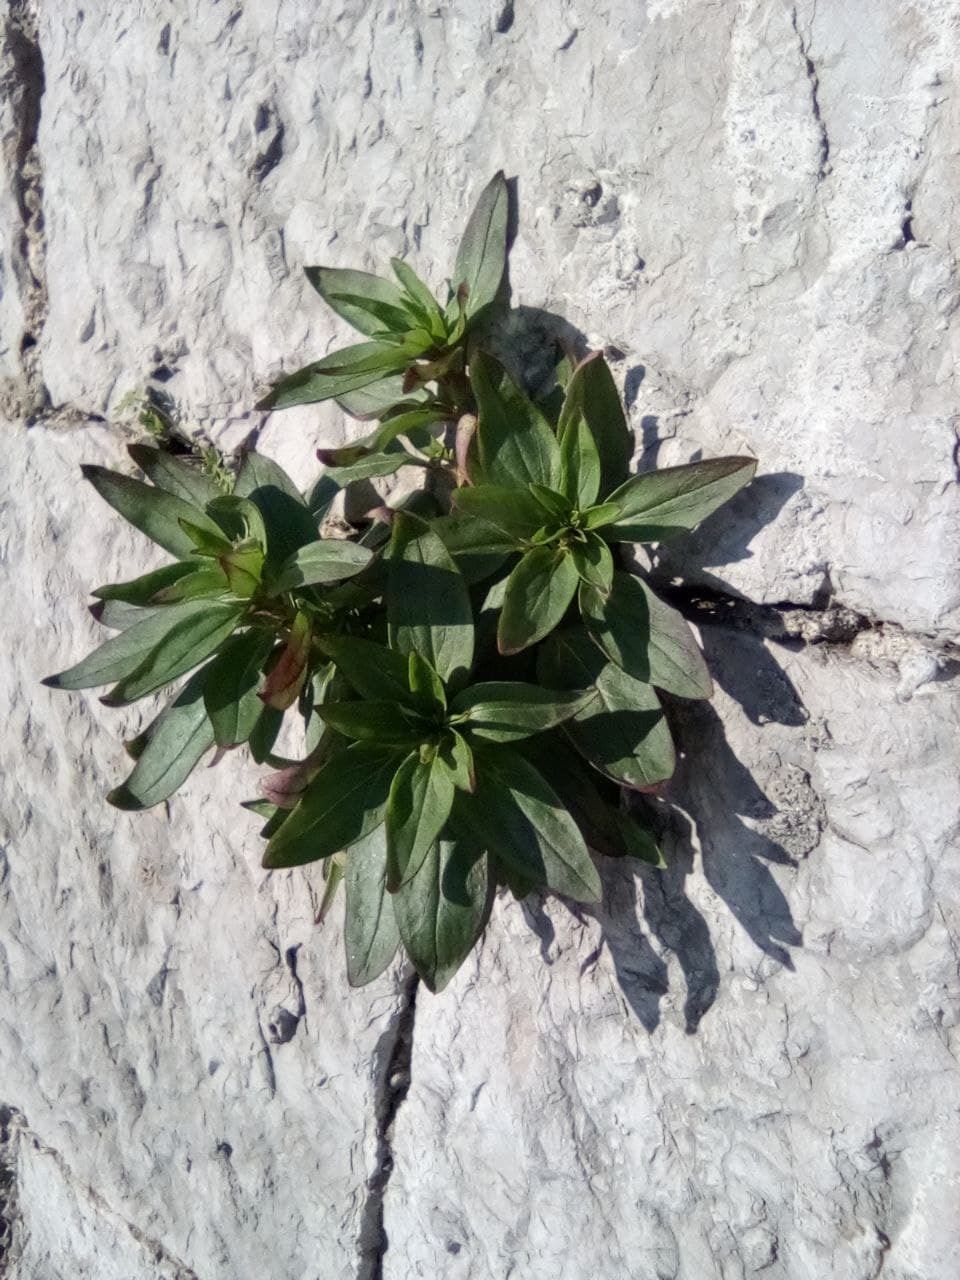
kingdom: Plantae
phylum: Tracheophyta
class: Magnoliopsida
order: Dipsacales
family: Caprifoliaceae
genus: Centranthus
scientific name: Centranthus ruber
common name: Red valerian
